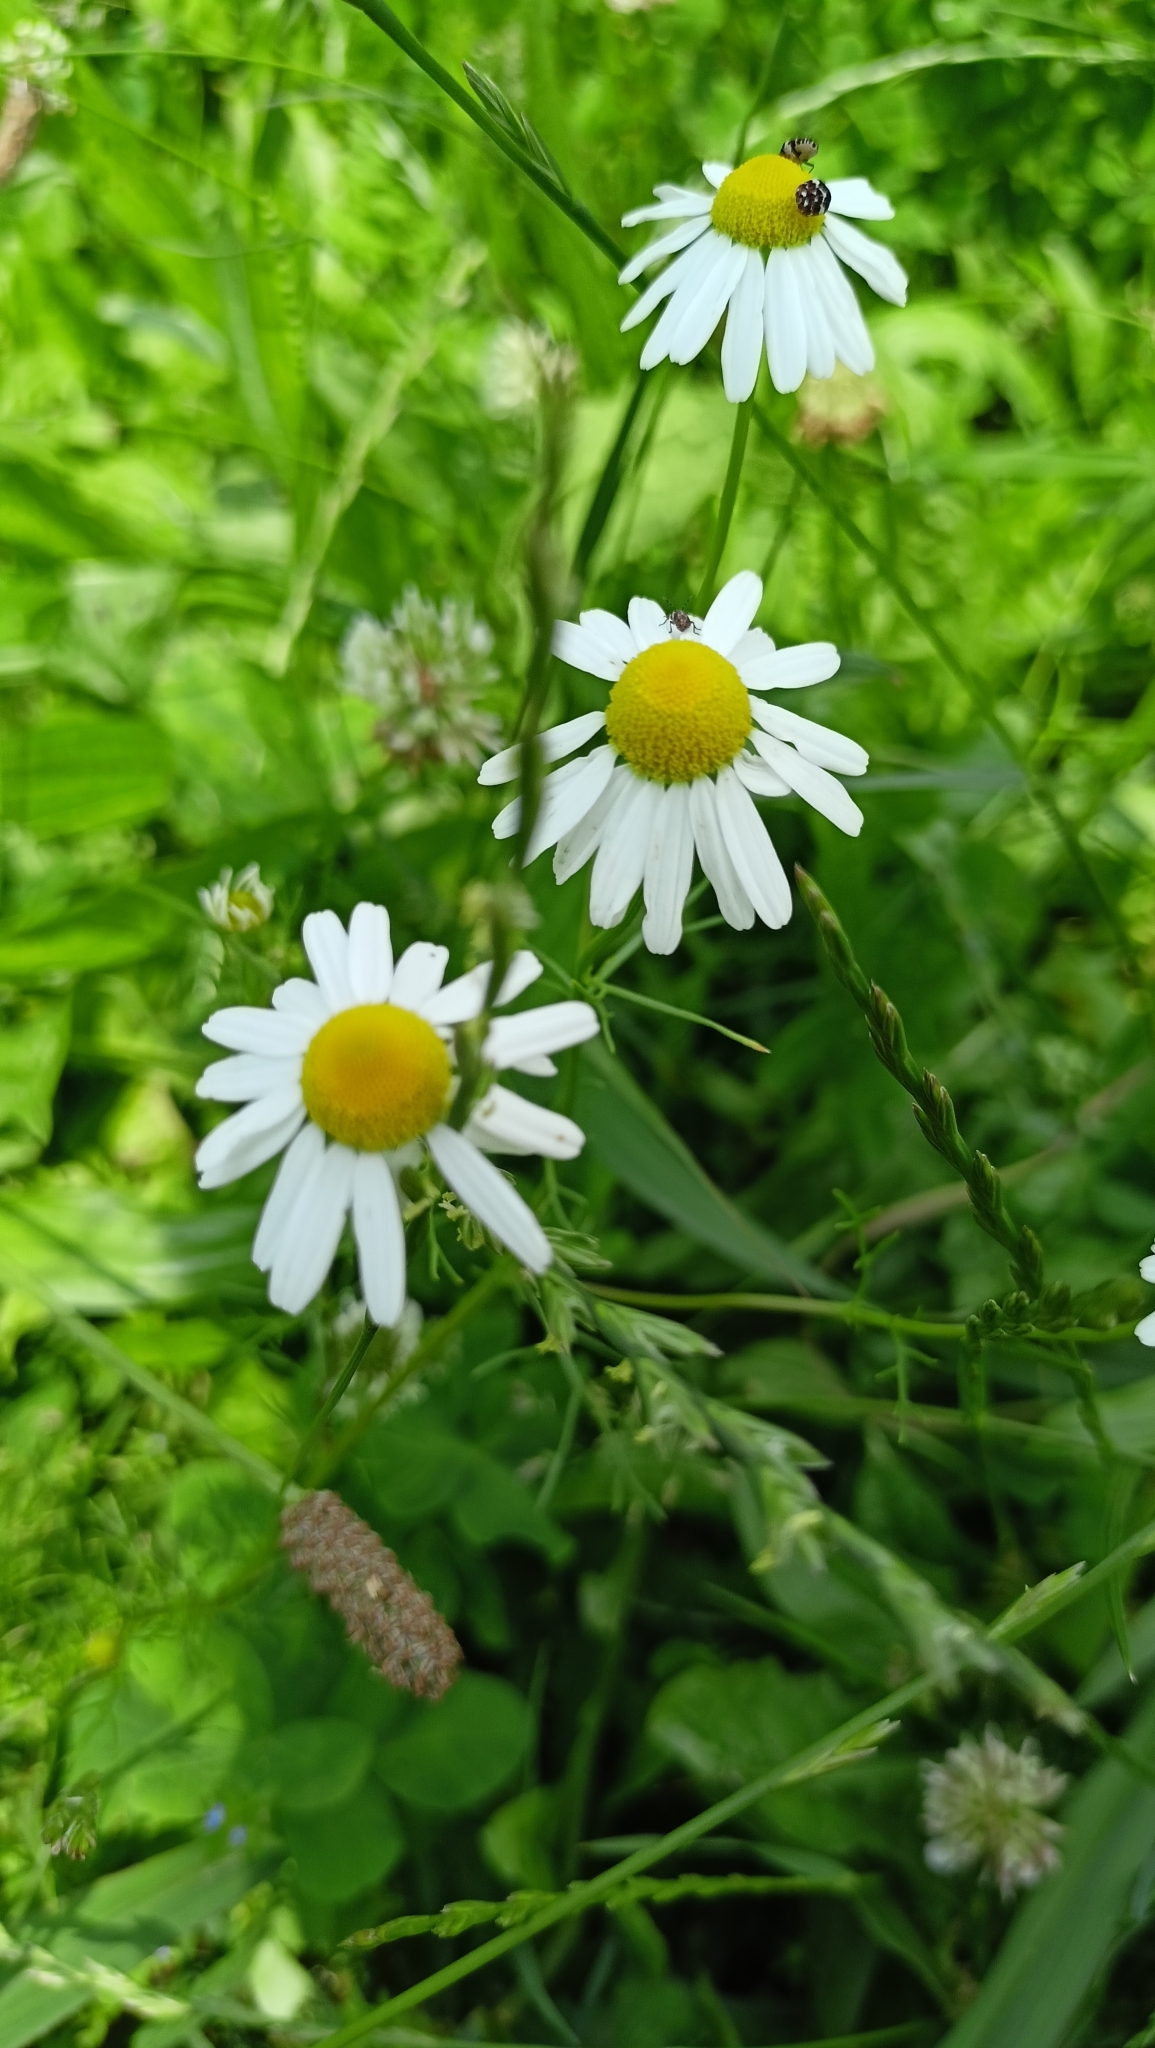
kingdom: Plantae
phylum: Tracheophyta
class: Magnoliopsida
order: Asterales
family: Asteraceae
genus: Matricaria
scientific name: Matricaria chamomilla
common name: Scented mayweed
